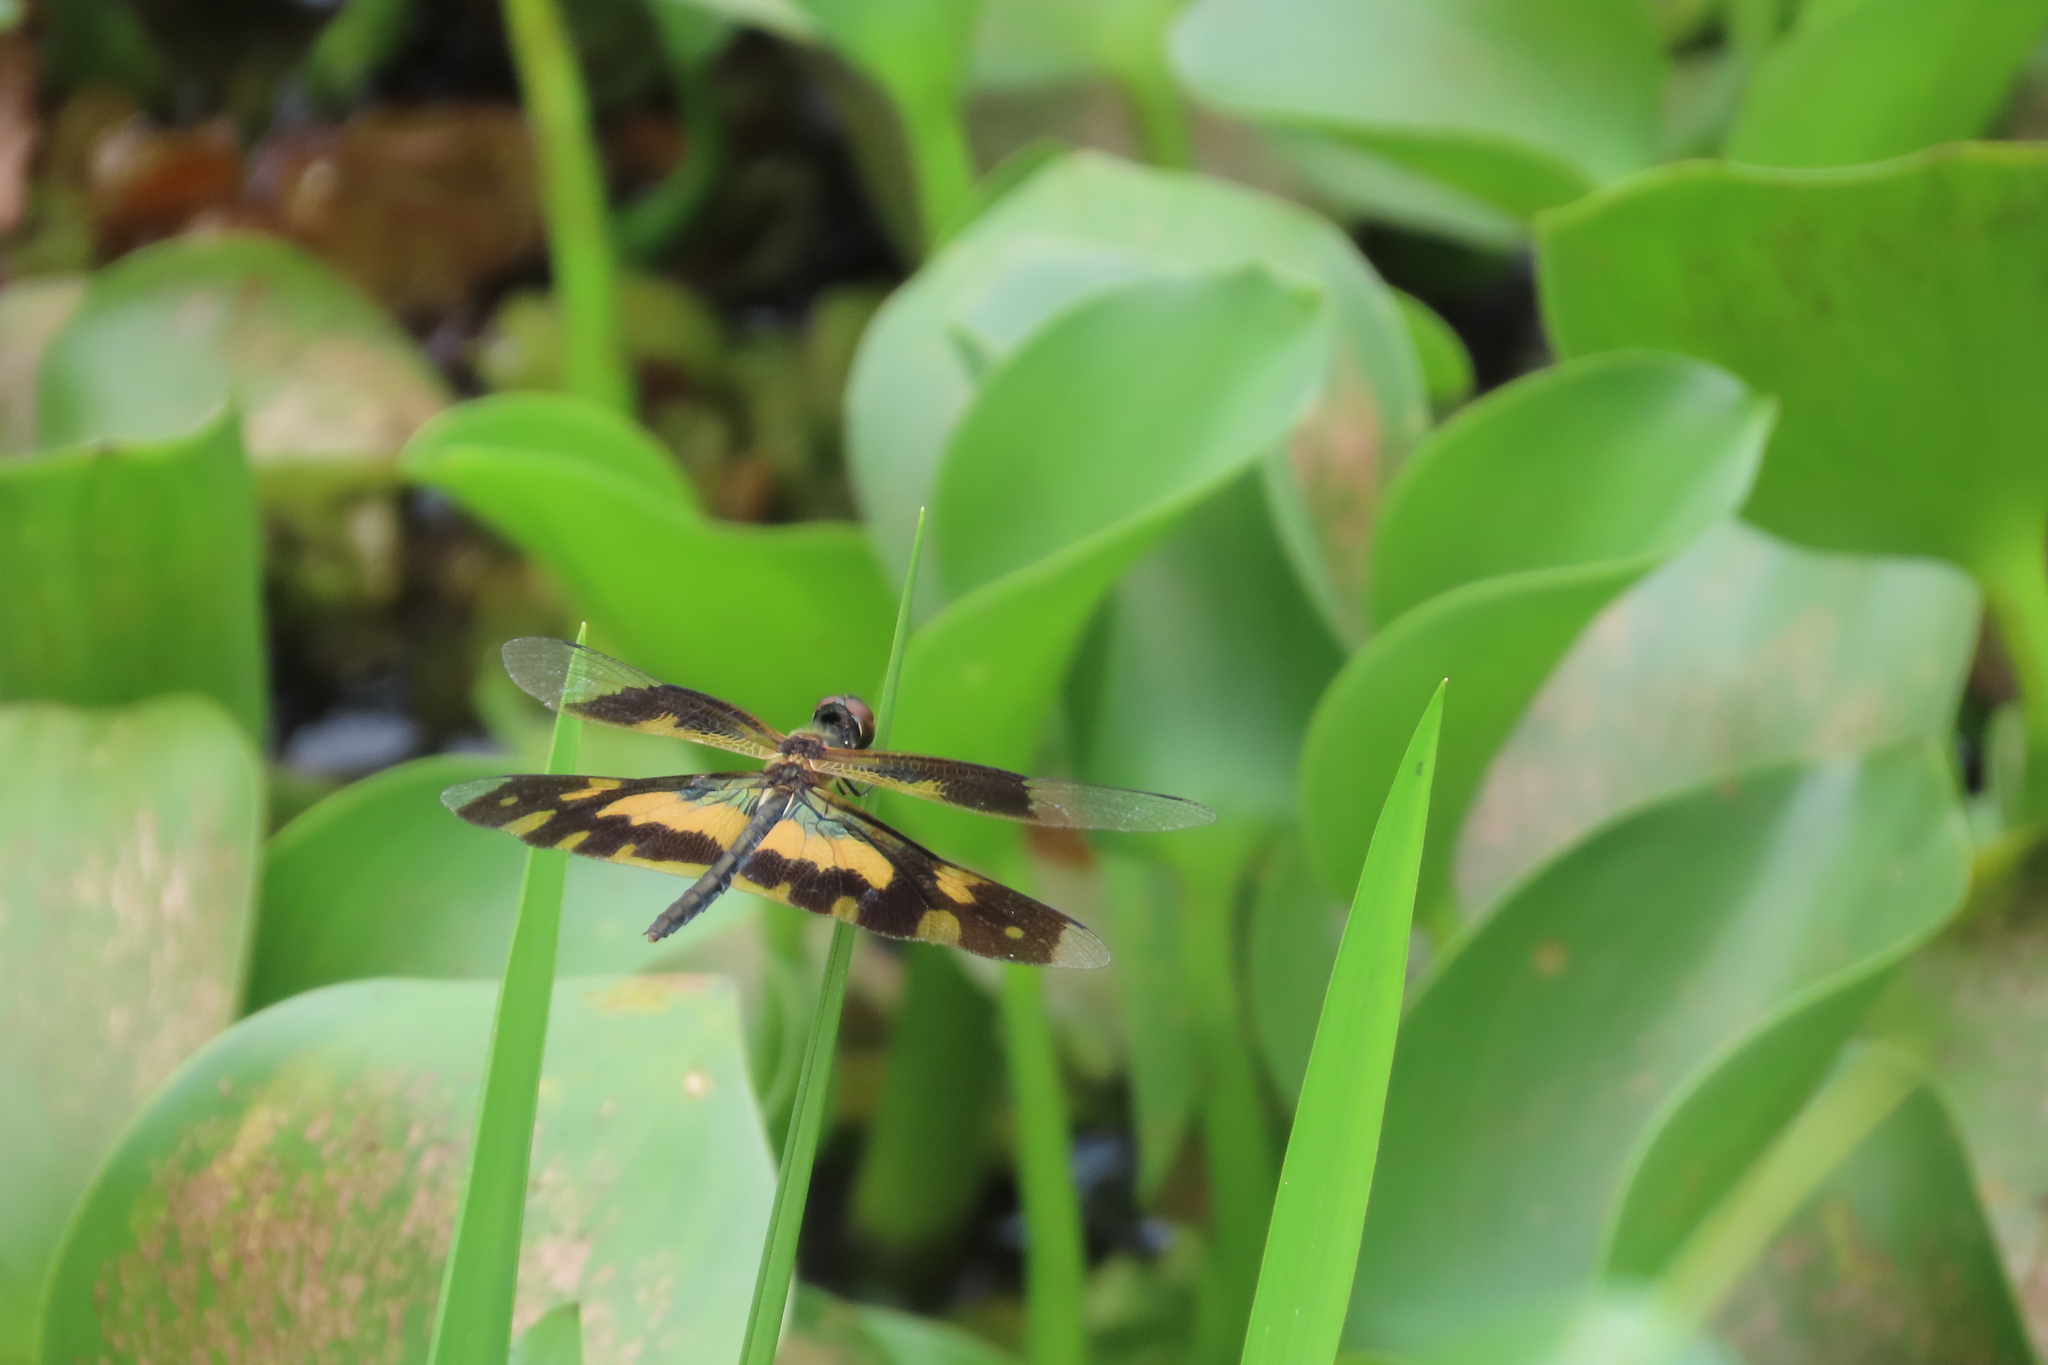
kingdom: Animalia
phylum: Arthropoda
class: Insecta
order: Odonata
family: Libellulidae
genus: Rhyothemis
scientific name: Rhyothemis variegata
